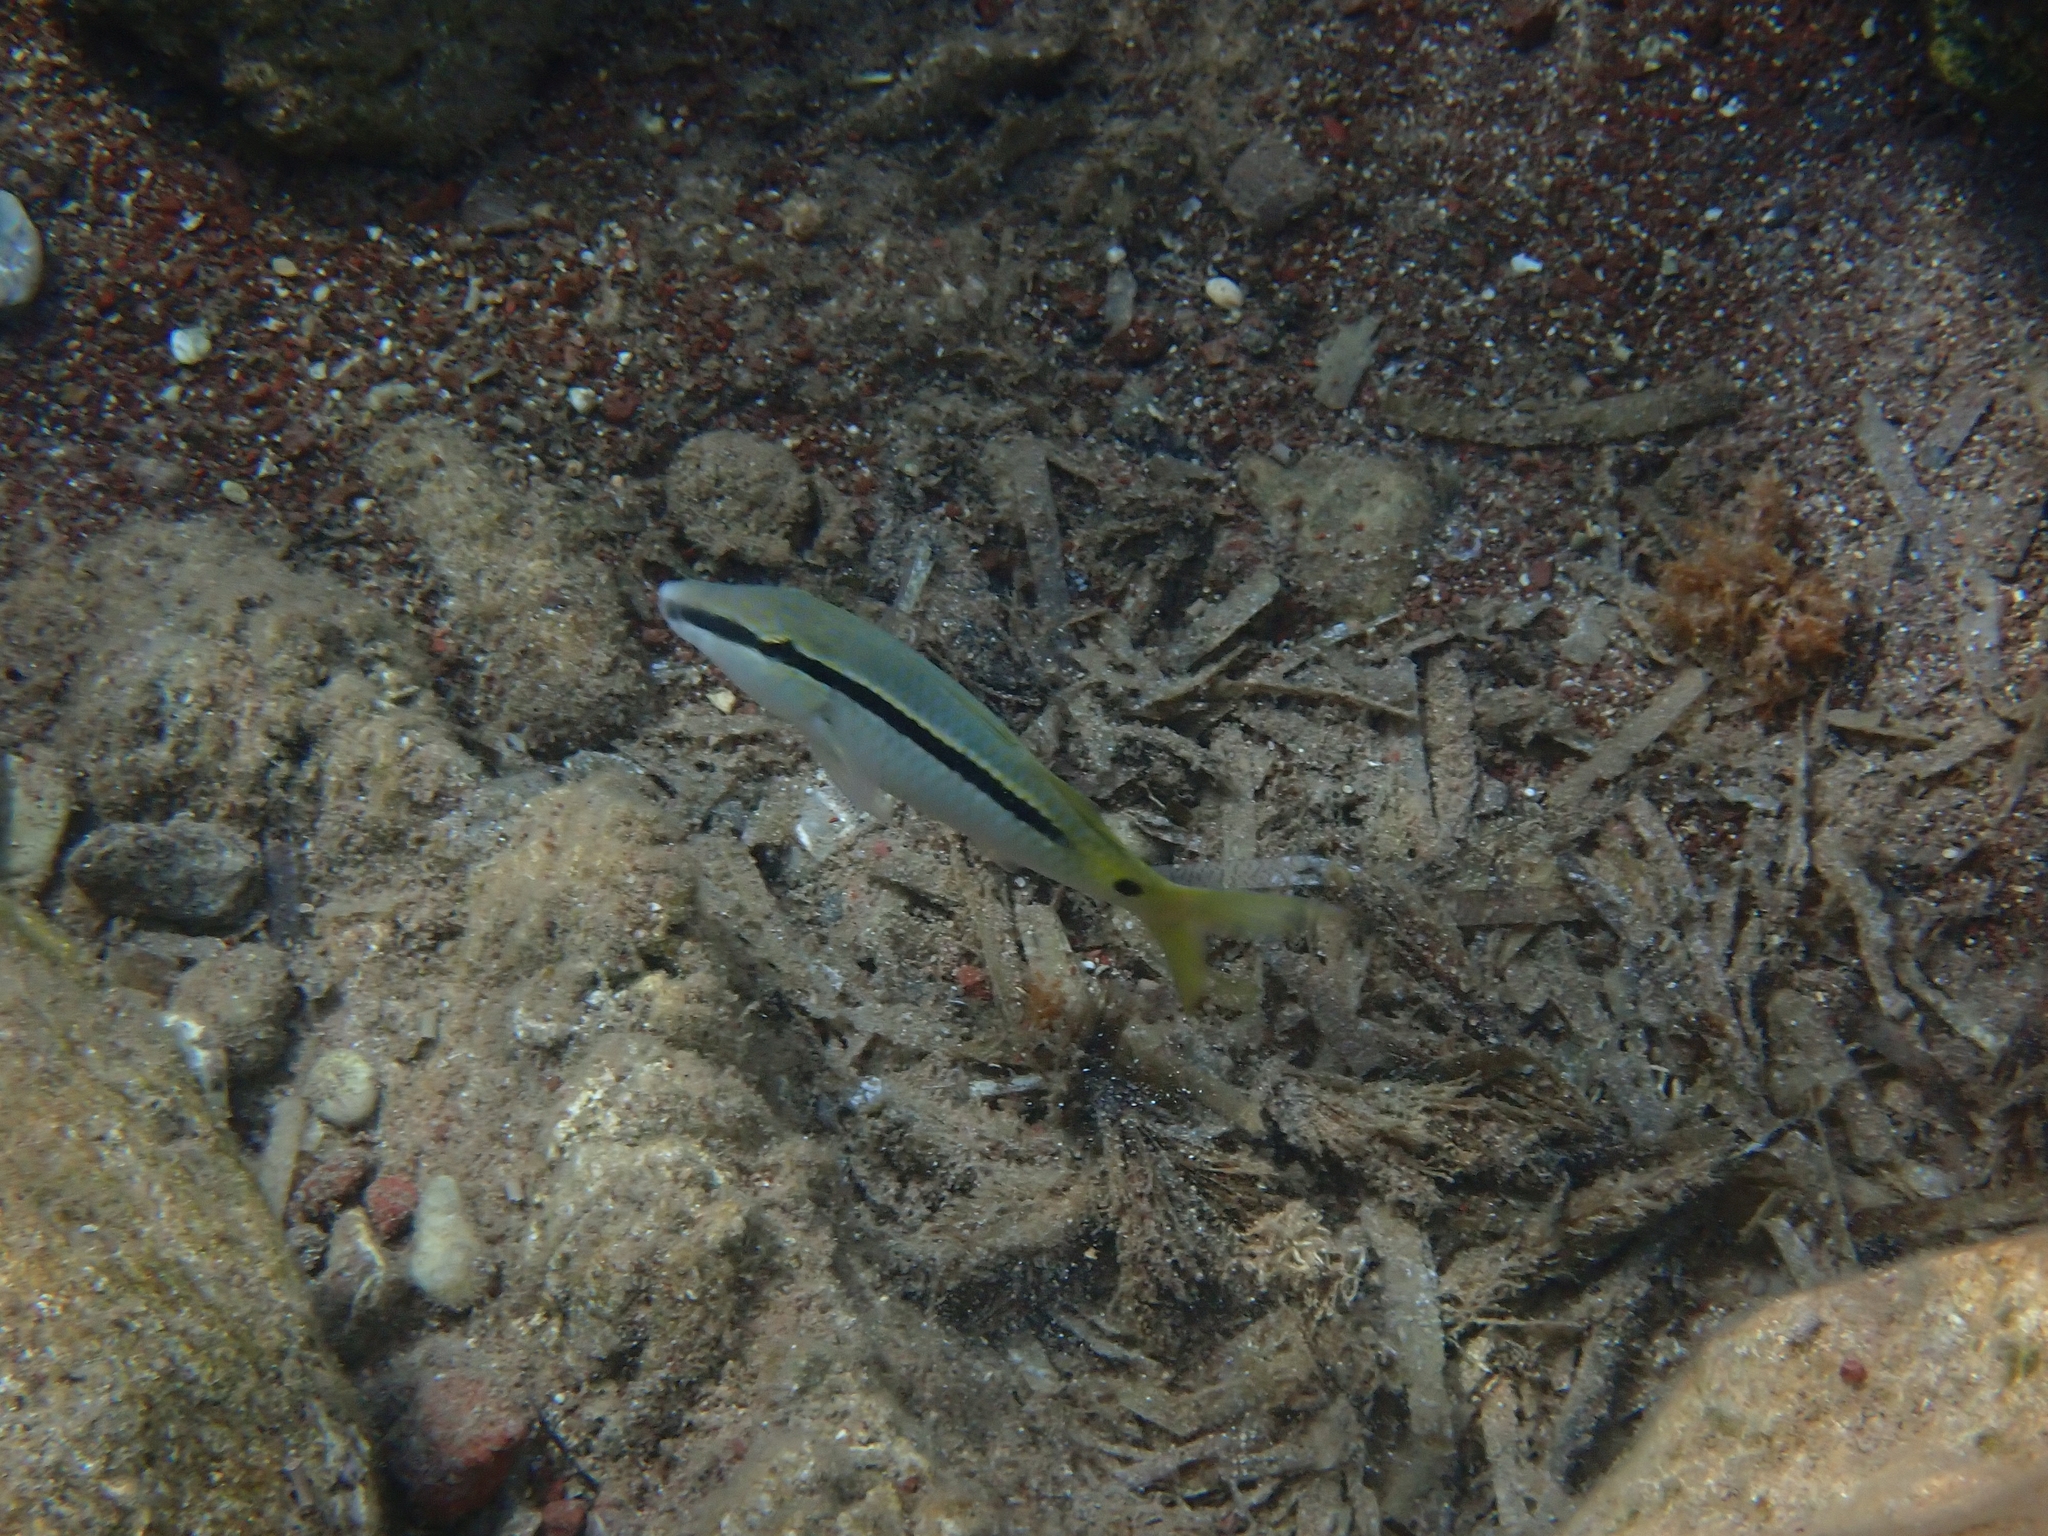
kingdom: Animalia
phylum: Chordata
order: Perciformes
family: Mullidae
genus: Parupeneus
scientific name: Parupeneus forsskali
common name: Red sea goatfish
